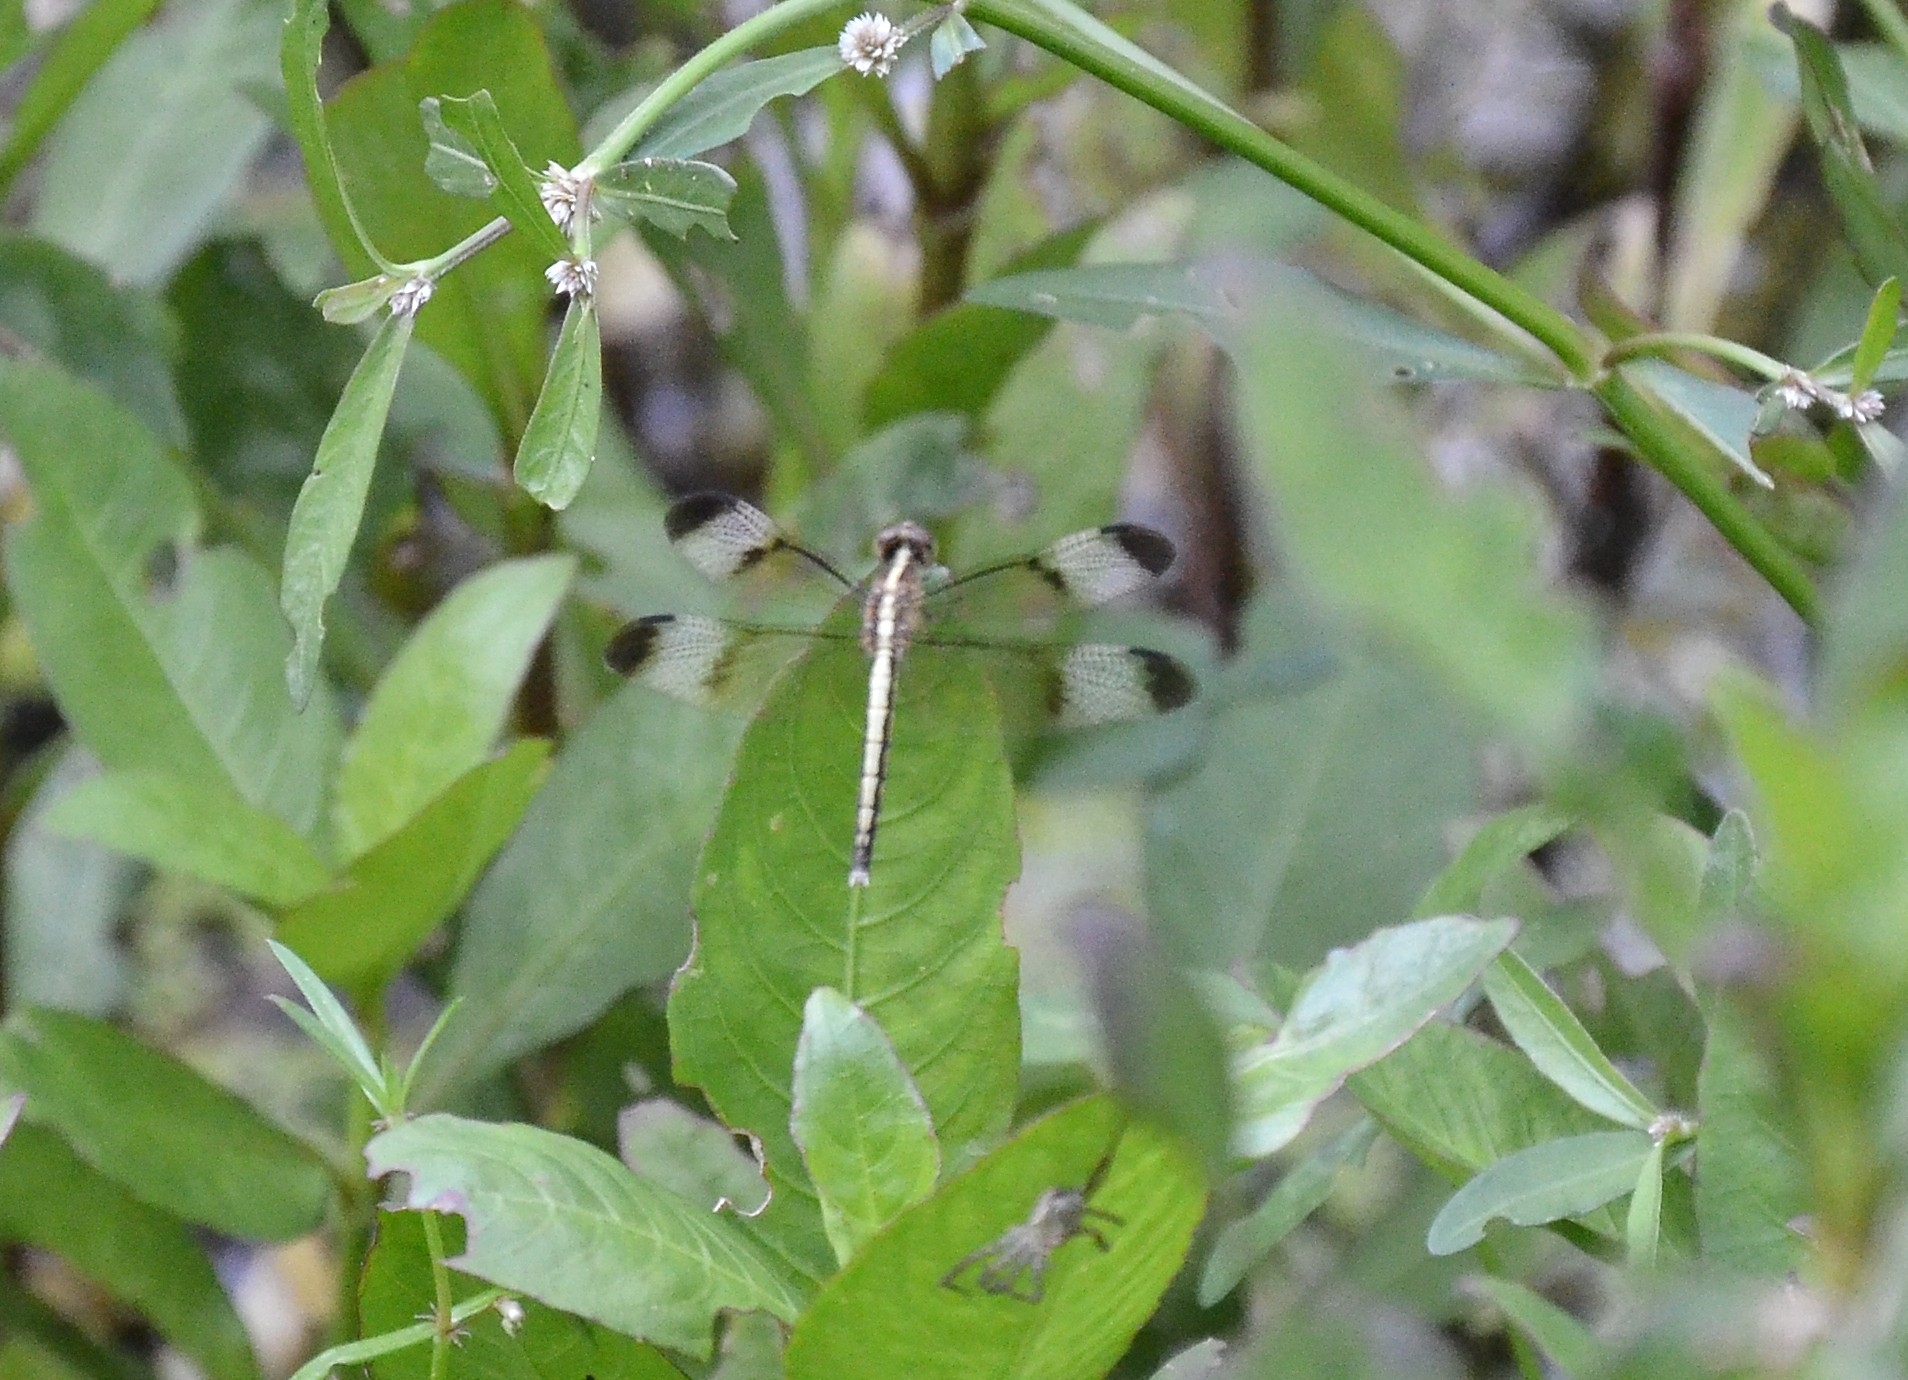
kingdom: Animalia
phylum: Arthropoda
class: Insecta
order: Odonata
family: Libellulidae
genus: Neurothemis
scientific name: Neurothemis tullia
